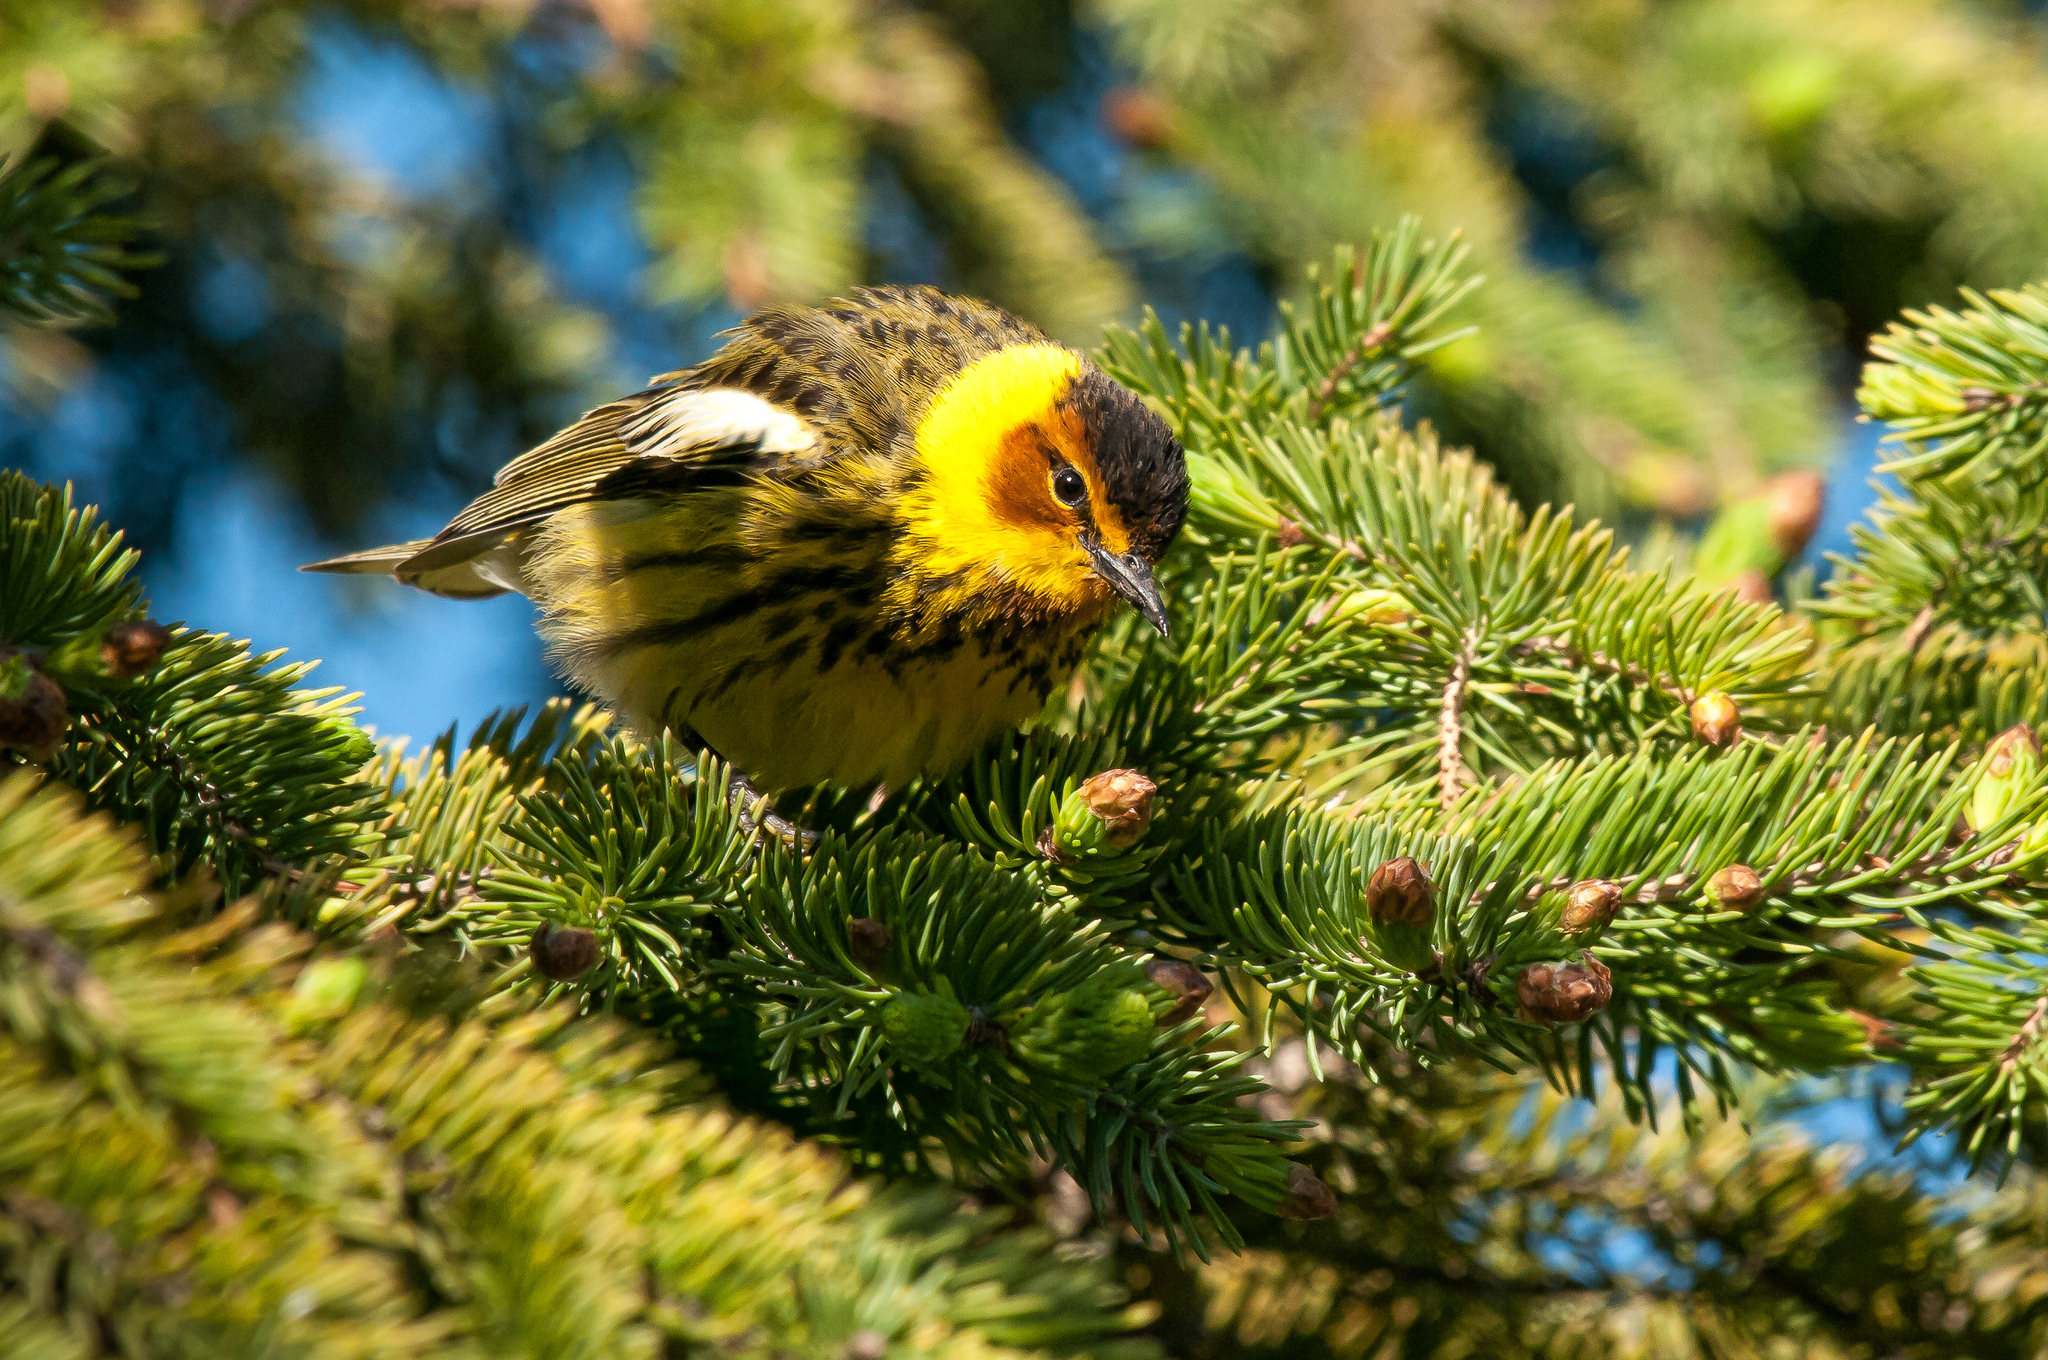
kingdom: Animalia
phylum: Chordata
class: Aves
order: Passeriformes
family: Parulidae
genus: Setophaga
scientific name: Setophaga tigrina
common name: Cape may warbler
